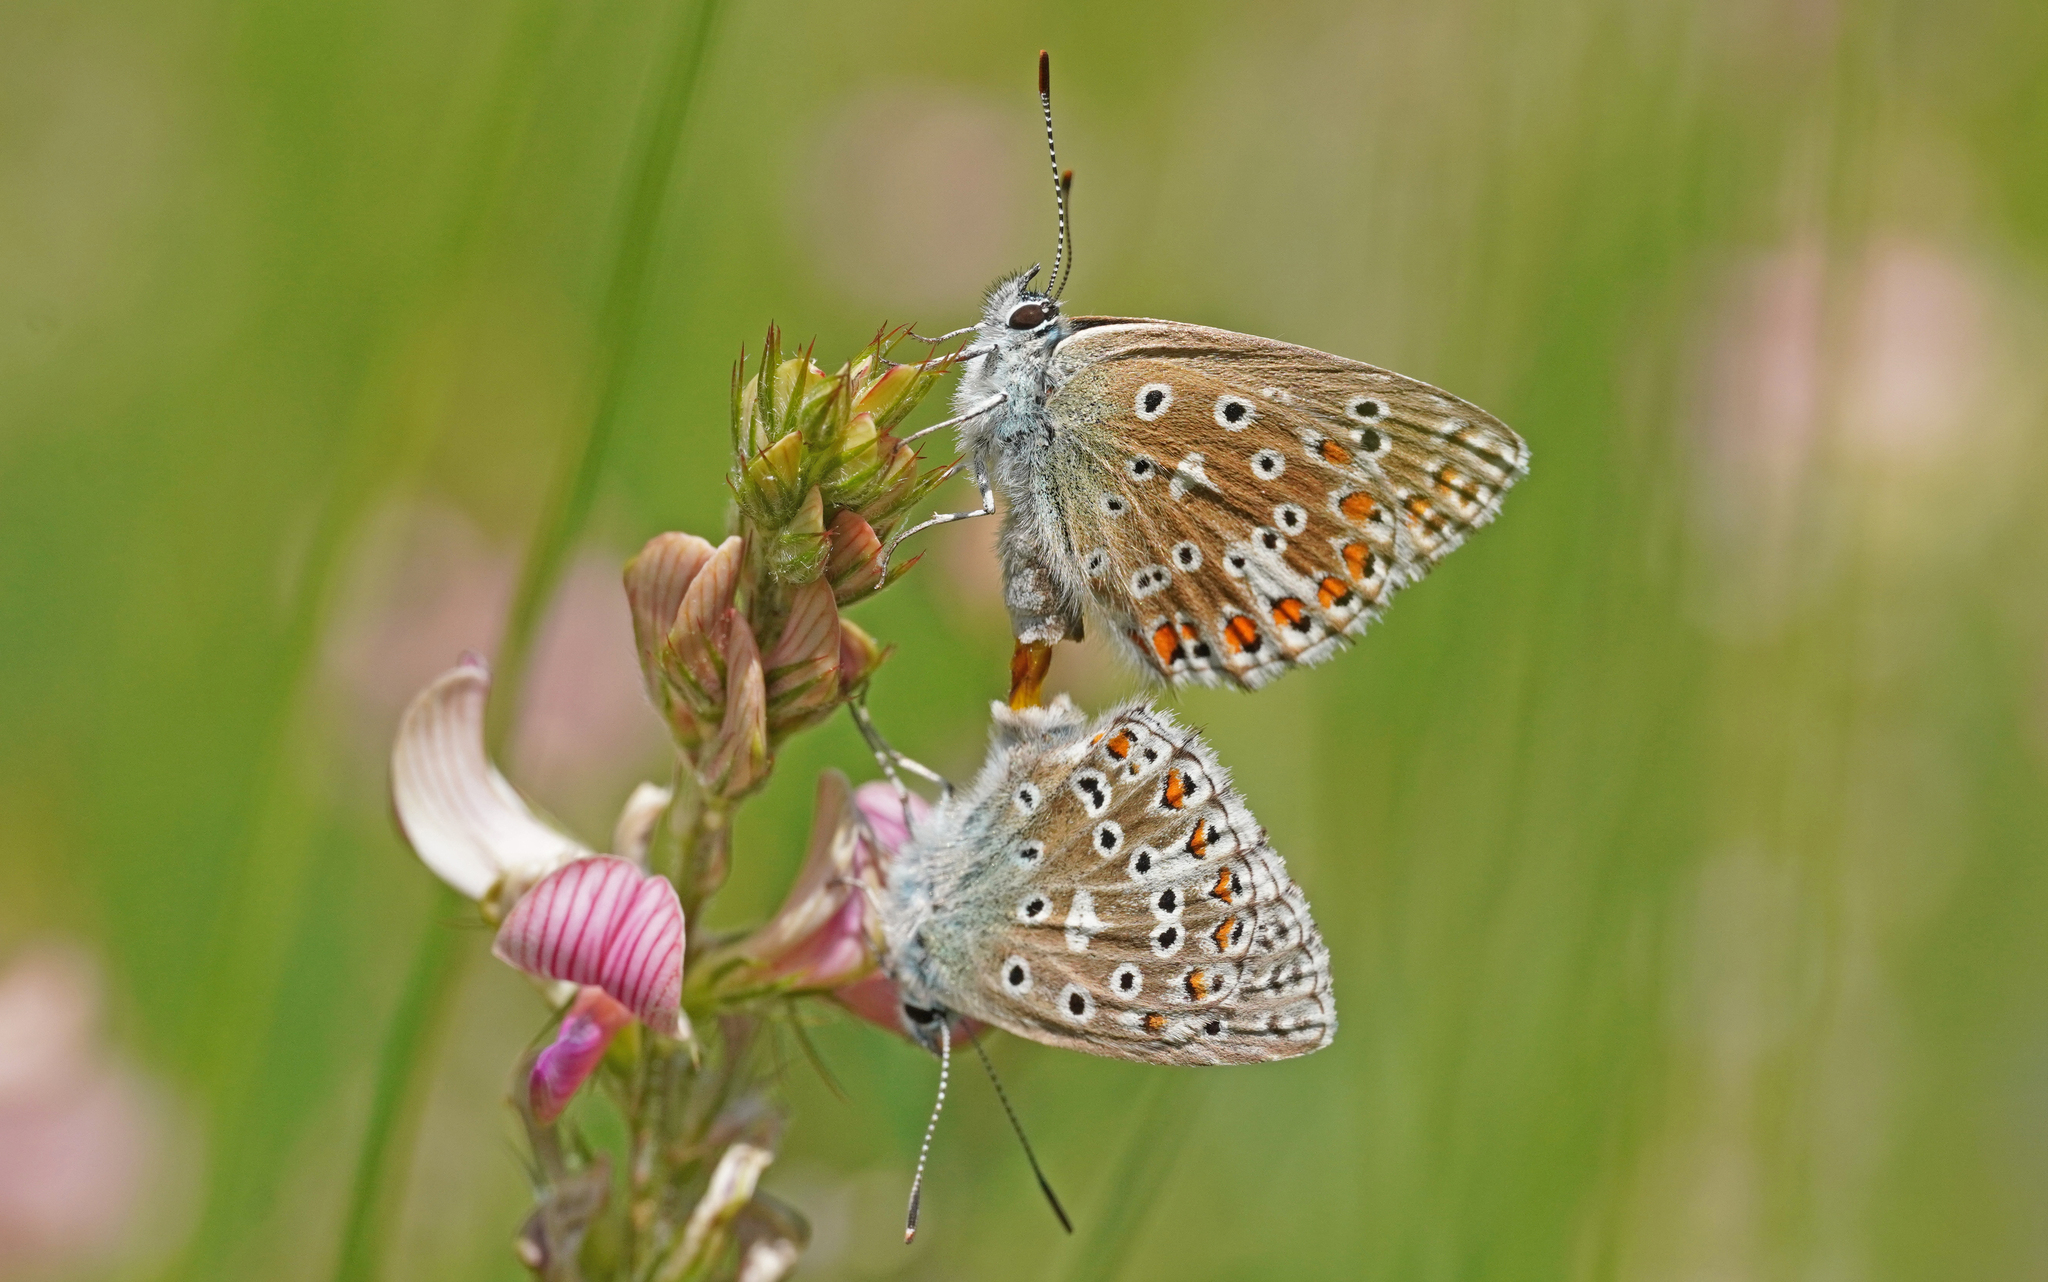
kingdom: Animalia
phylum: Arthropoda
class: Insecta
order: Lepidoptera
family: Lycaenidae
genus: Lysandra
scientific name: Lysandra bellargus
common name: Adonis blue
